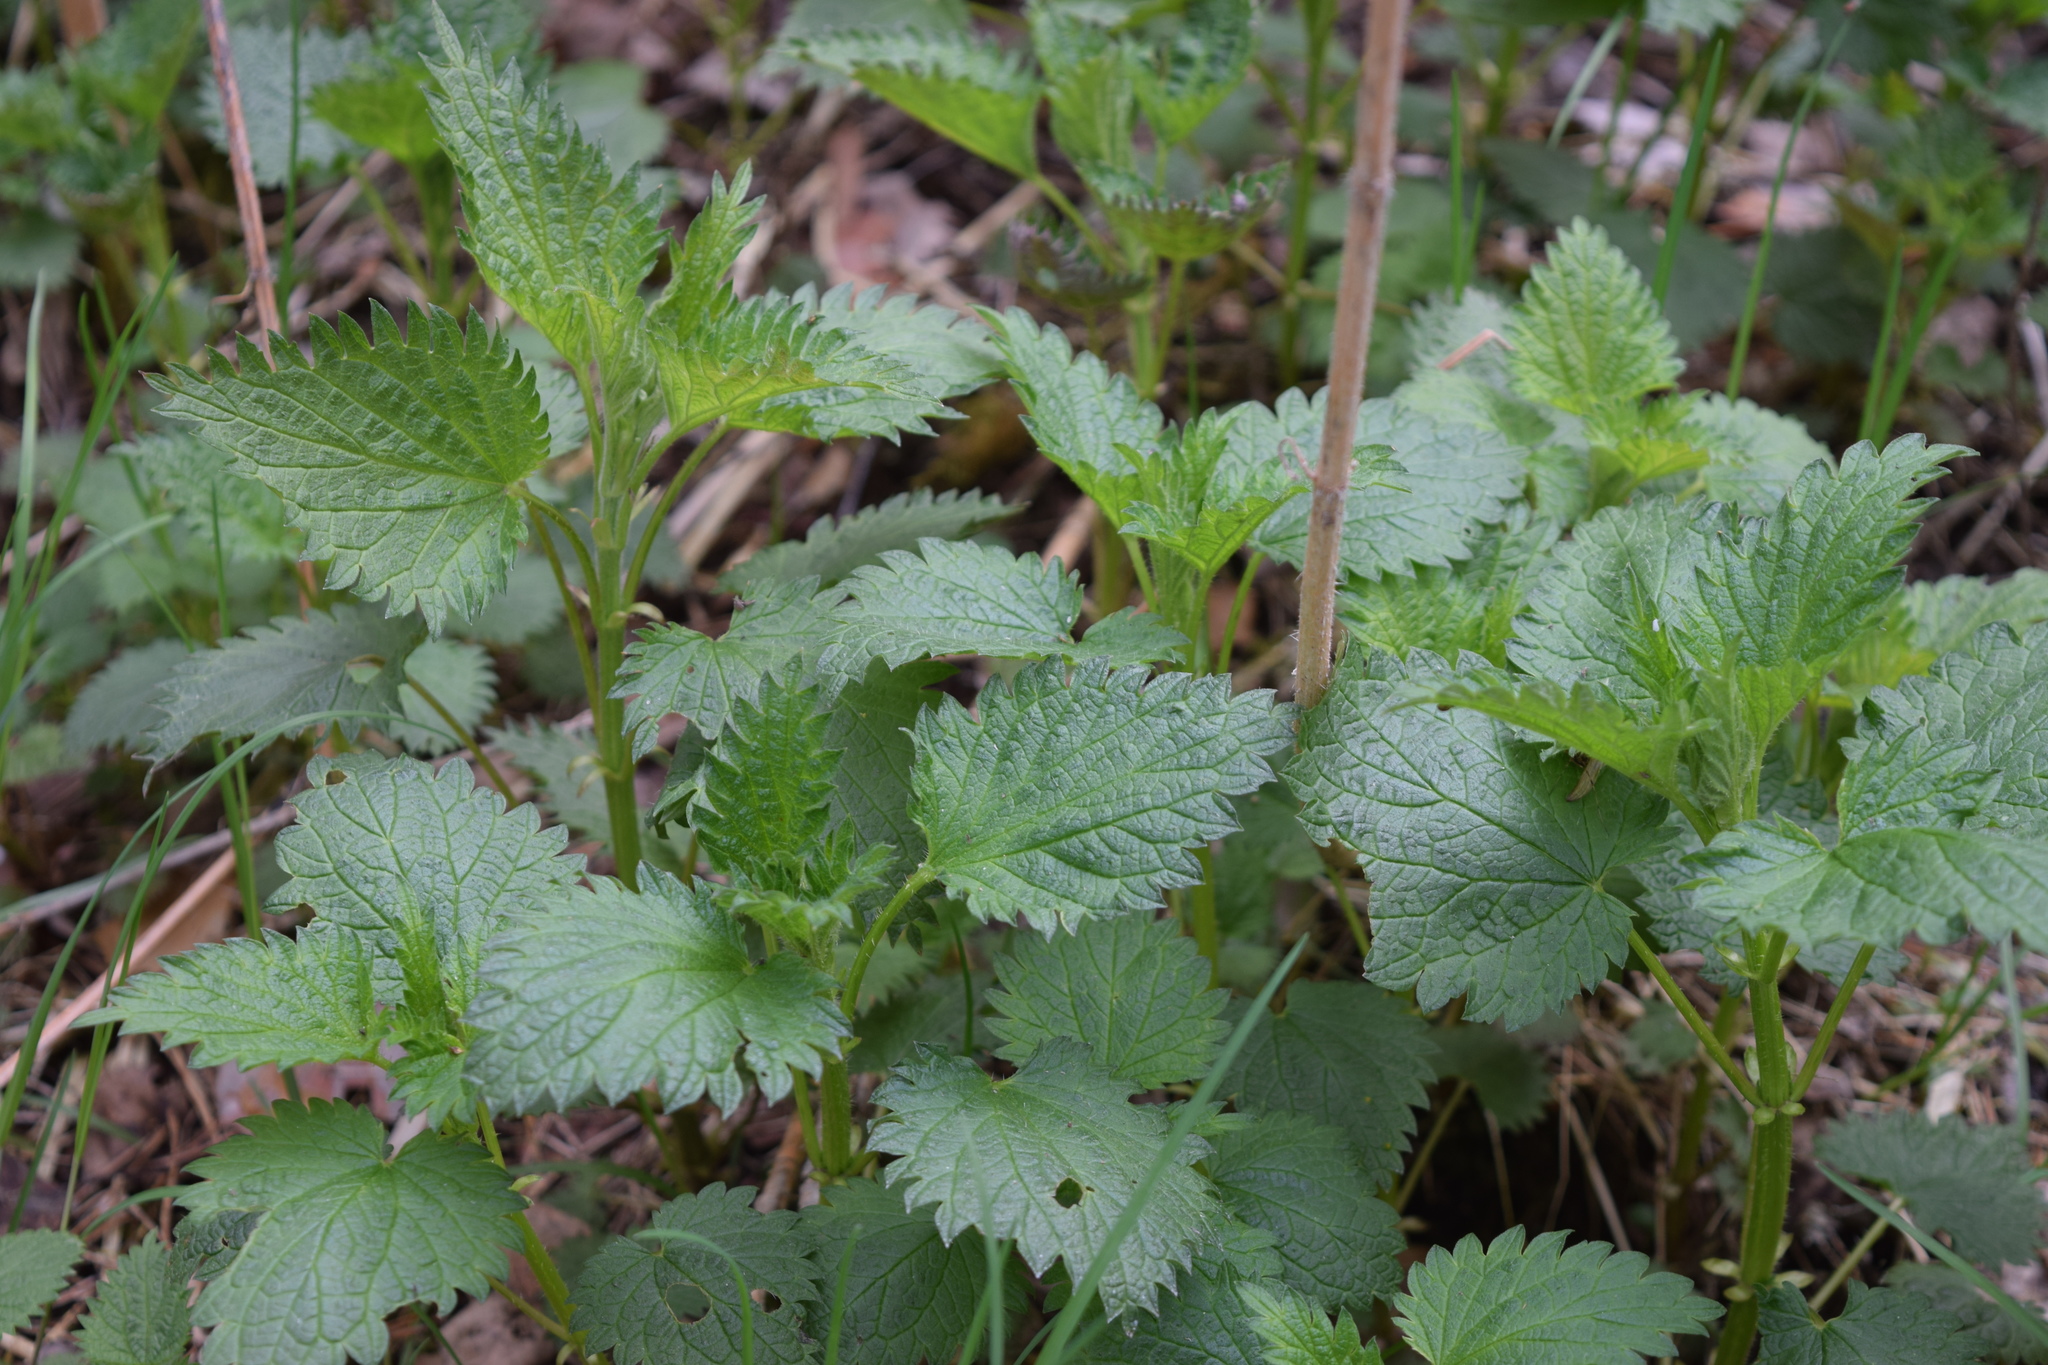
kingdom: Plantae
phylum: Tracheophyta
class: Magnoliopsida
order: Rosales
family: Urticaceae
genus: Urtica
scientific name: Urtica dioica
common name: Common nettle
